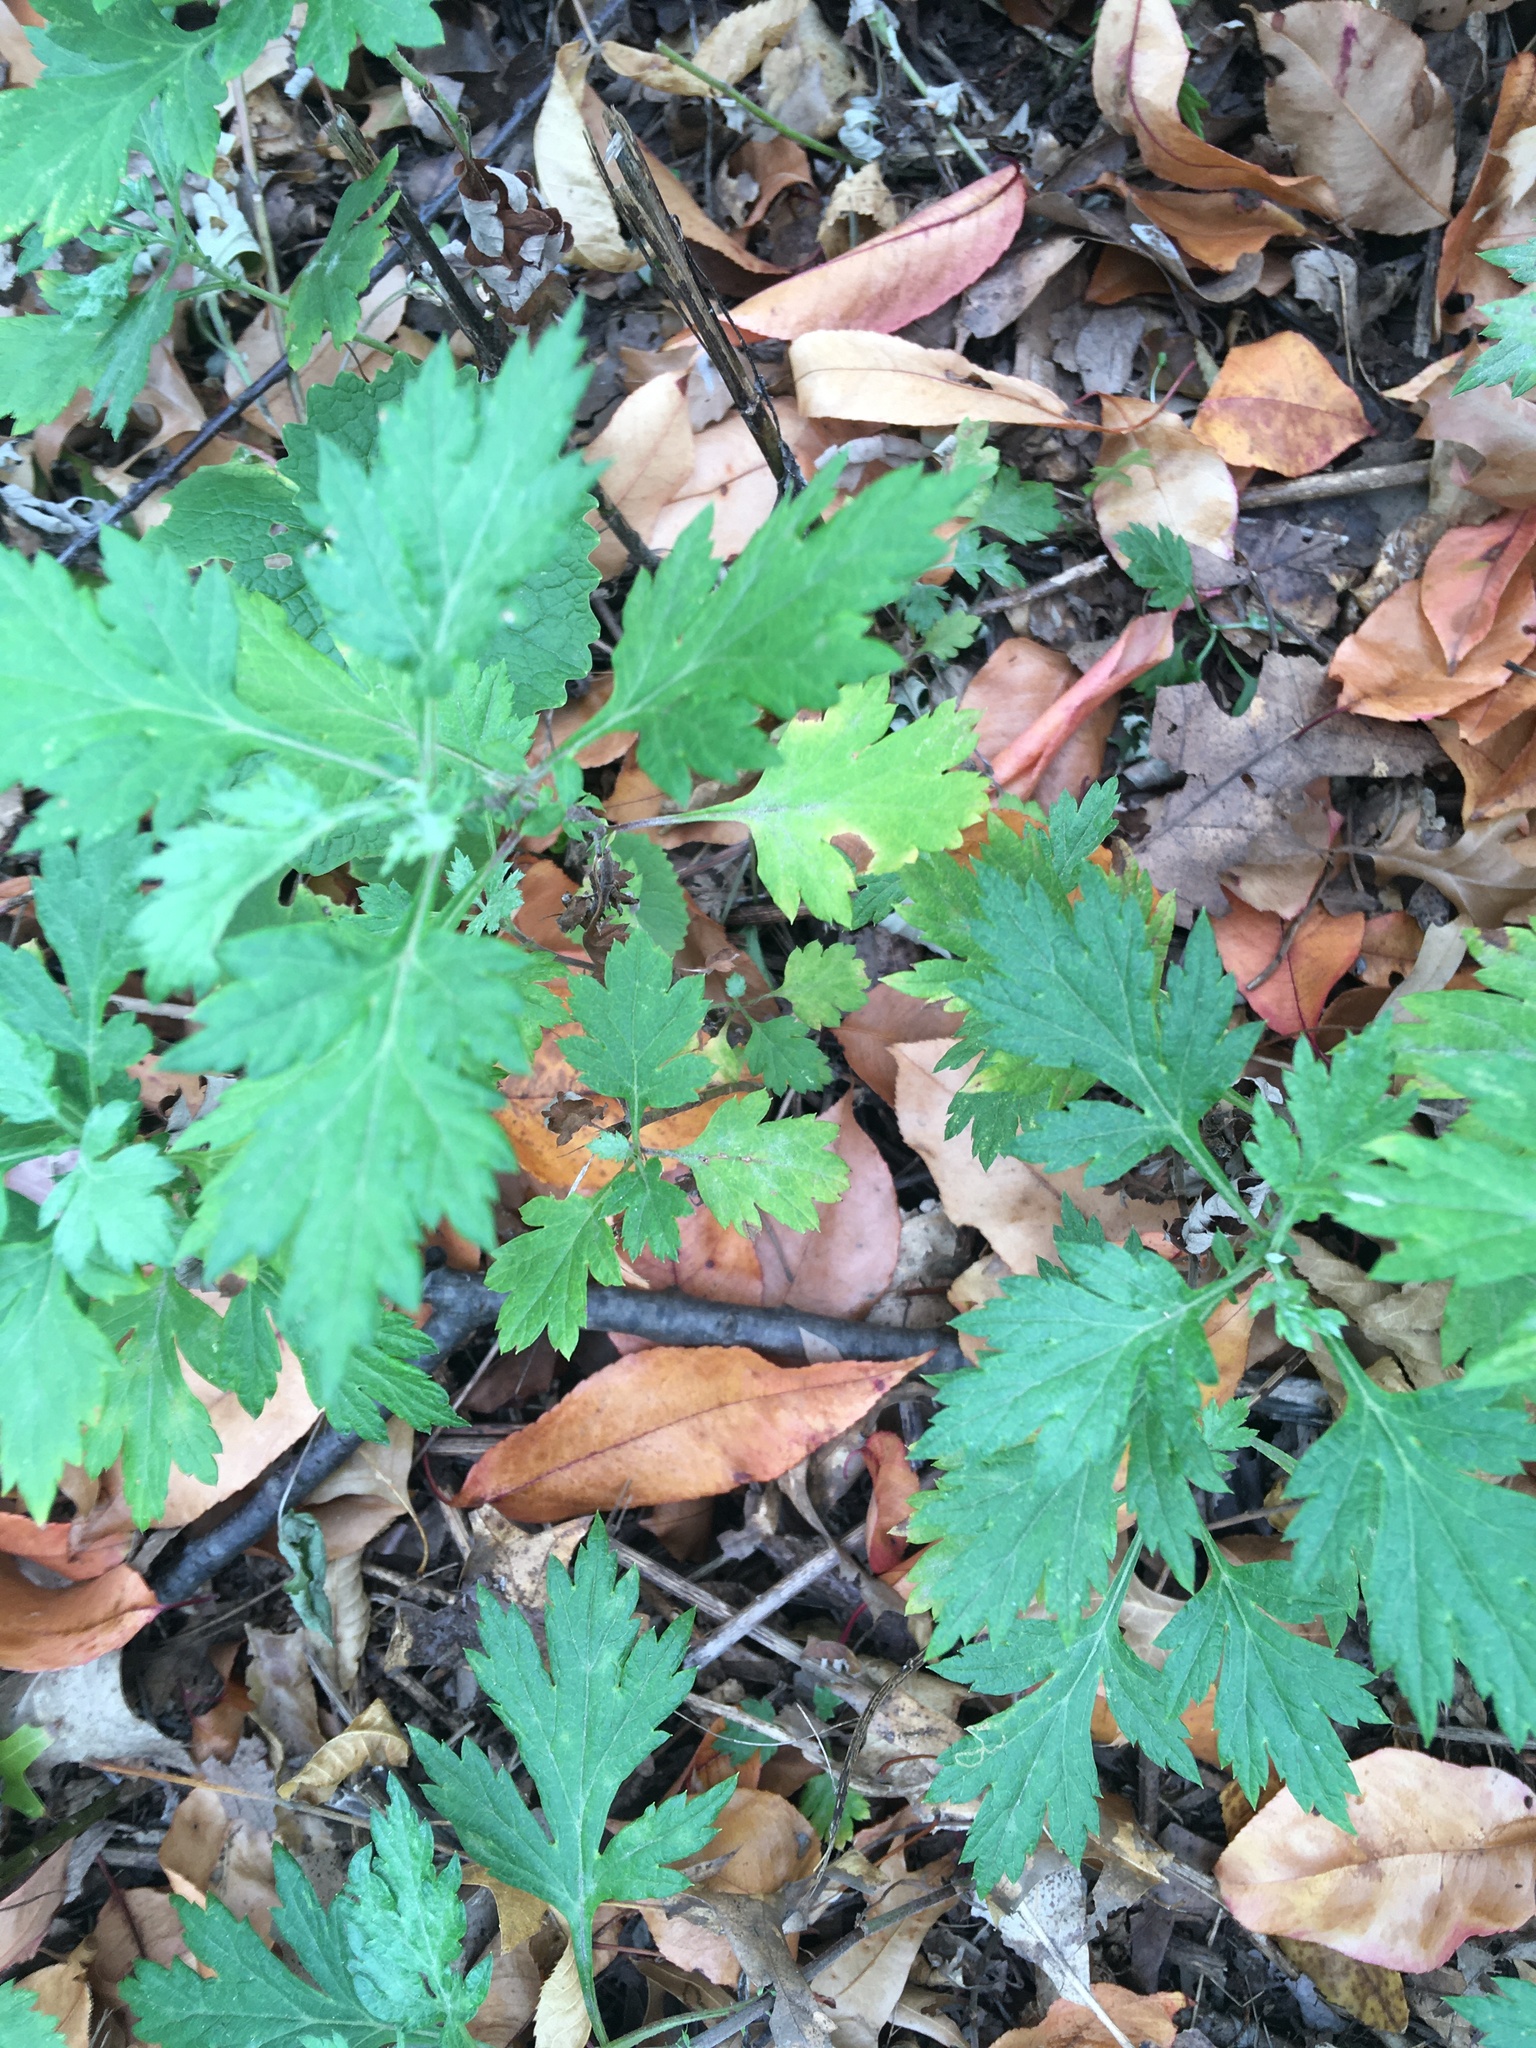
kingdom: Plantae
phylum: Tracheophyta
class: Magnoliopsida
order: Asterales
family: Asteraceae
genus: Artemisia
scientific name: Artemisia vulgaris
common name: Mugwort
